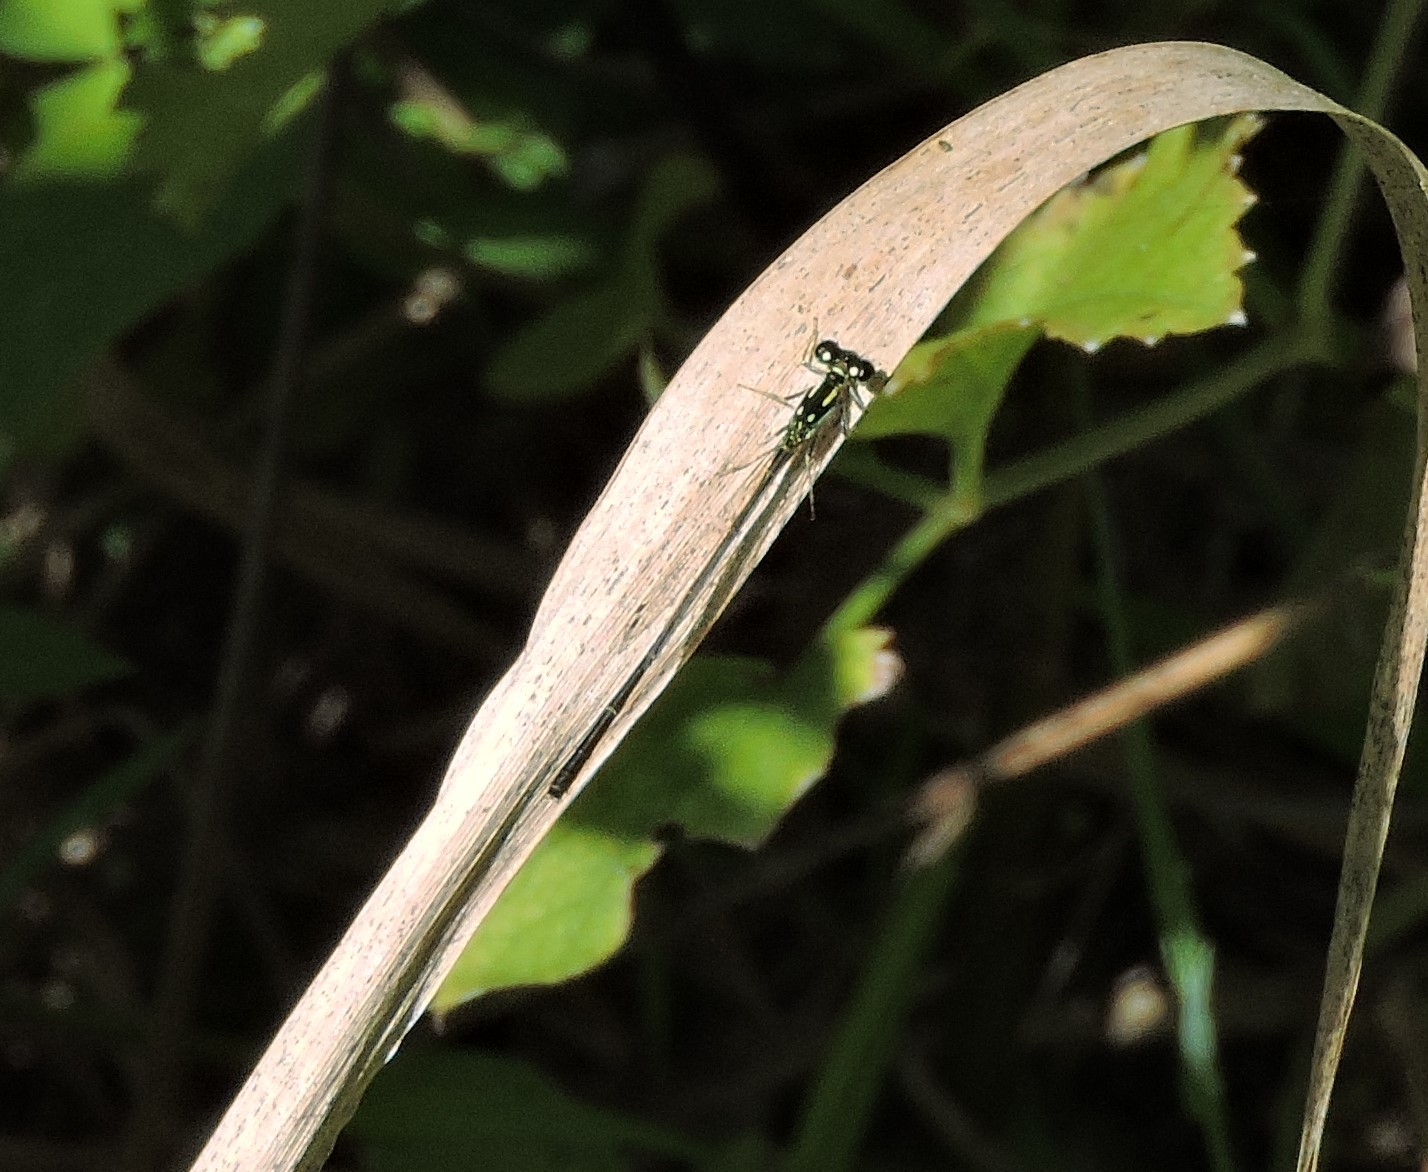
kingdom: Animalia
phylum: Arthropoda
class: Insecta
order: Odonata
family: Coenagrionidae
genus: Ischnura
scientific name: Ischnura posita
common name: Fragile forktail
